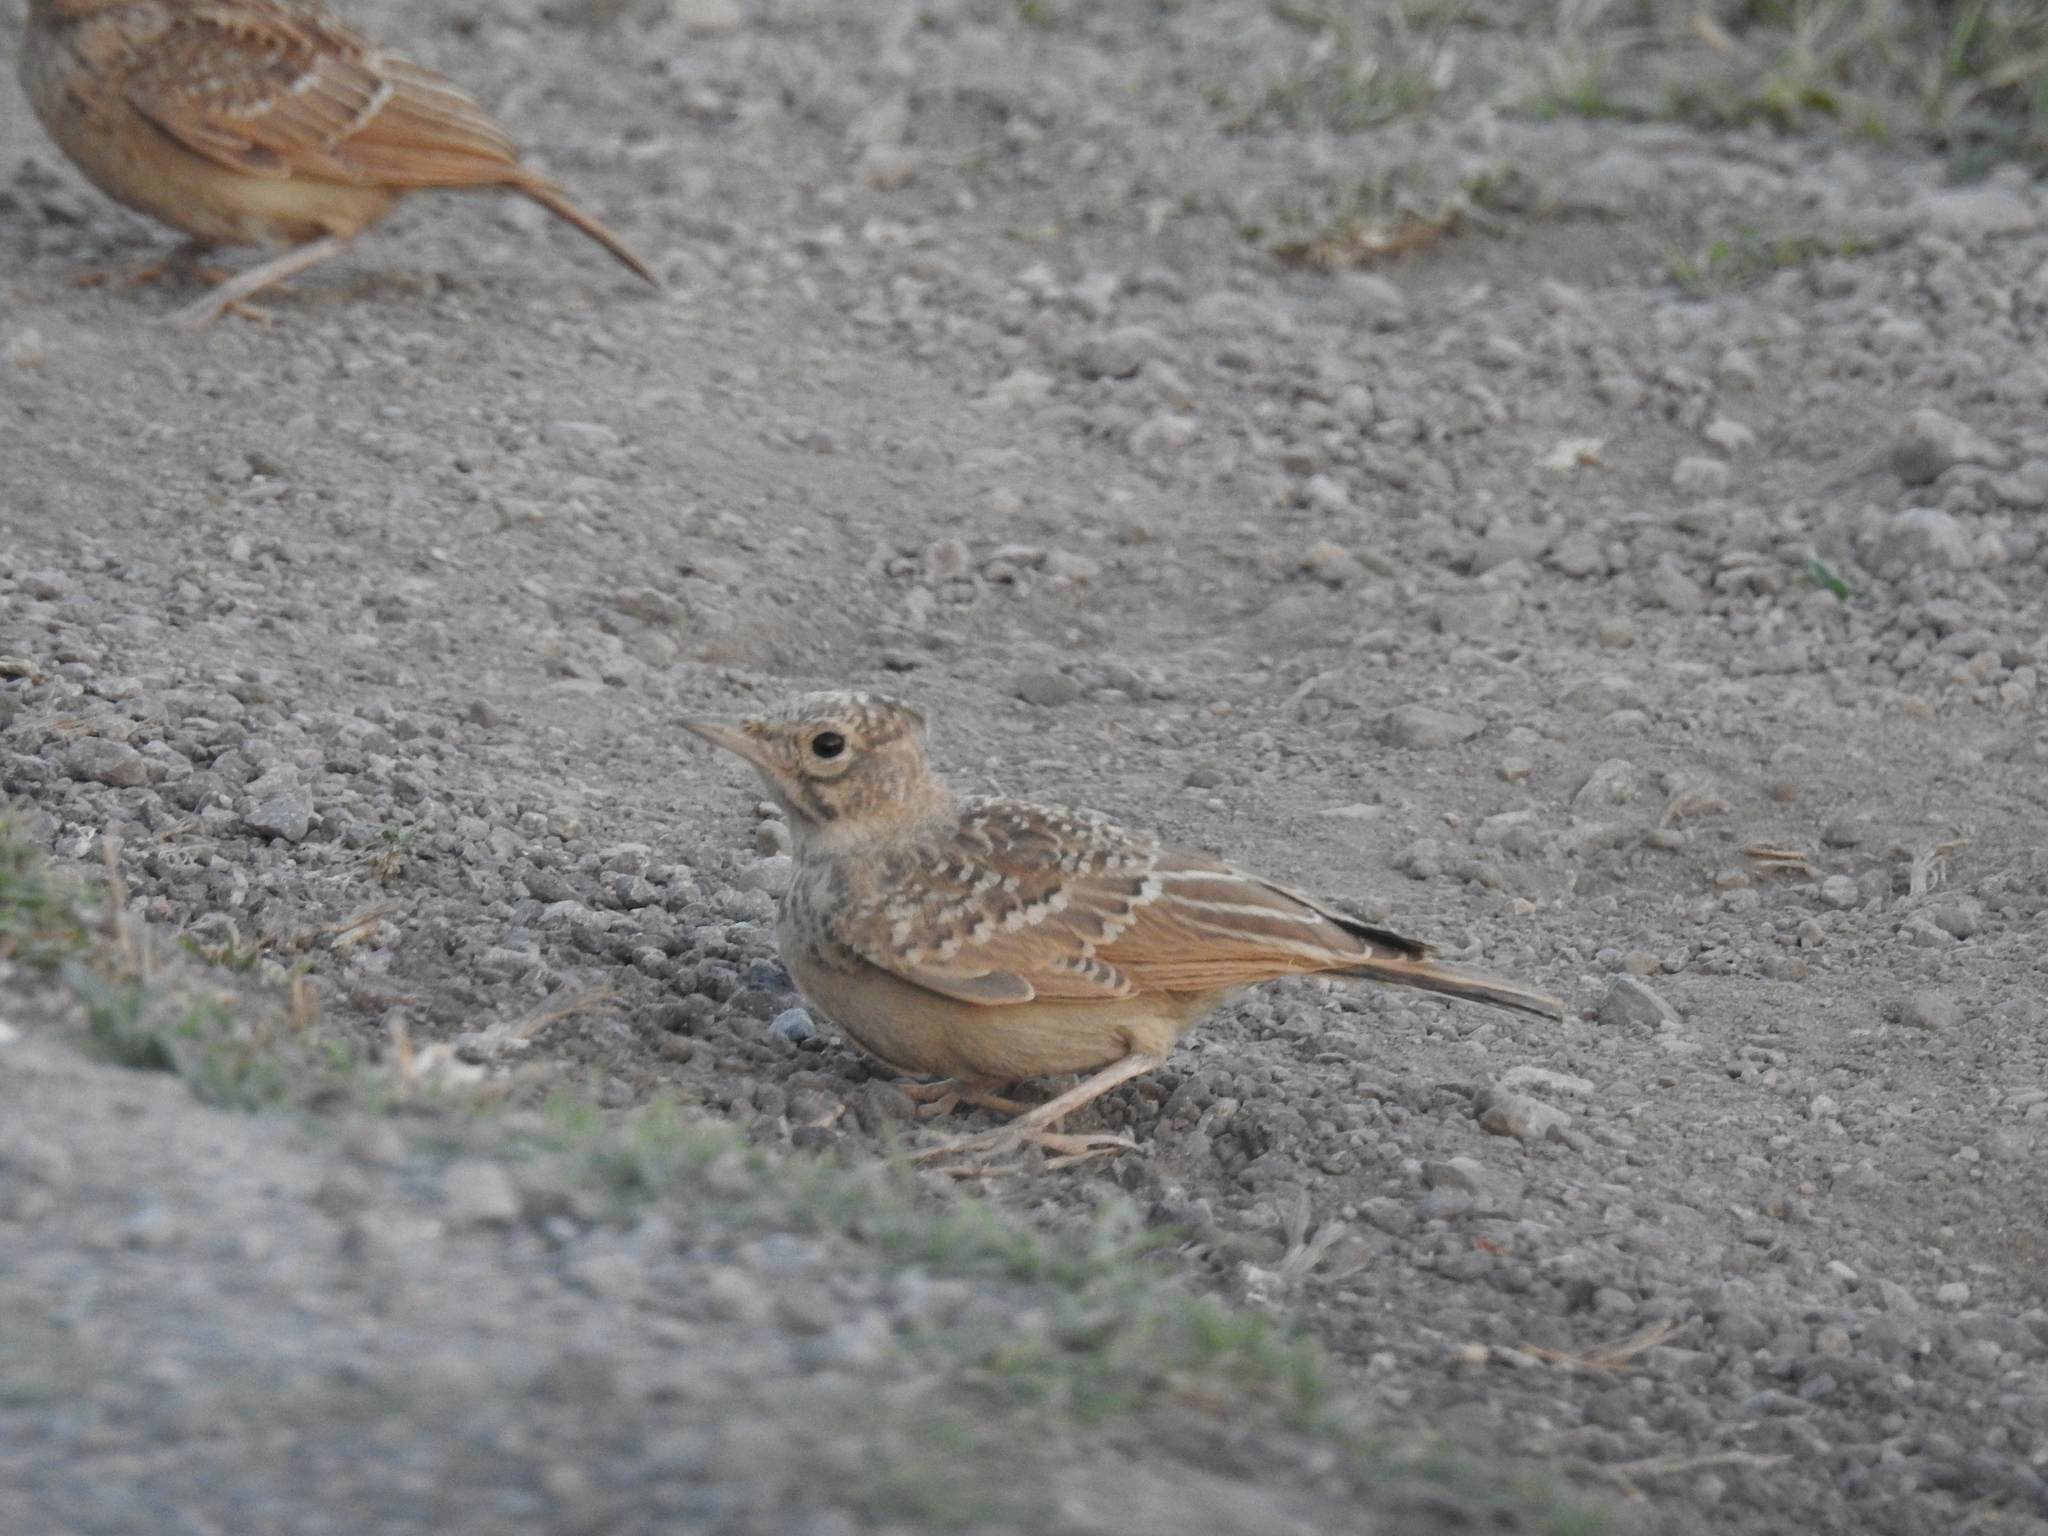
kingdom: Animalia
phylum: Chordata
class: Aves
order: Passeriformes
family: Alaudidae
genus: Galerida
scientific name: Galerida cristata
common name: Crested lark
